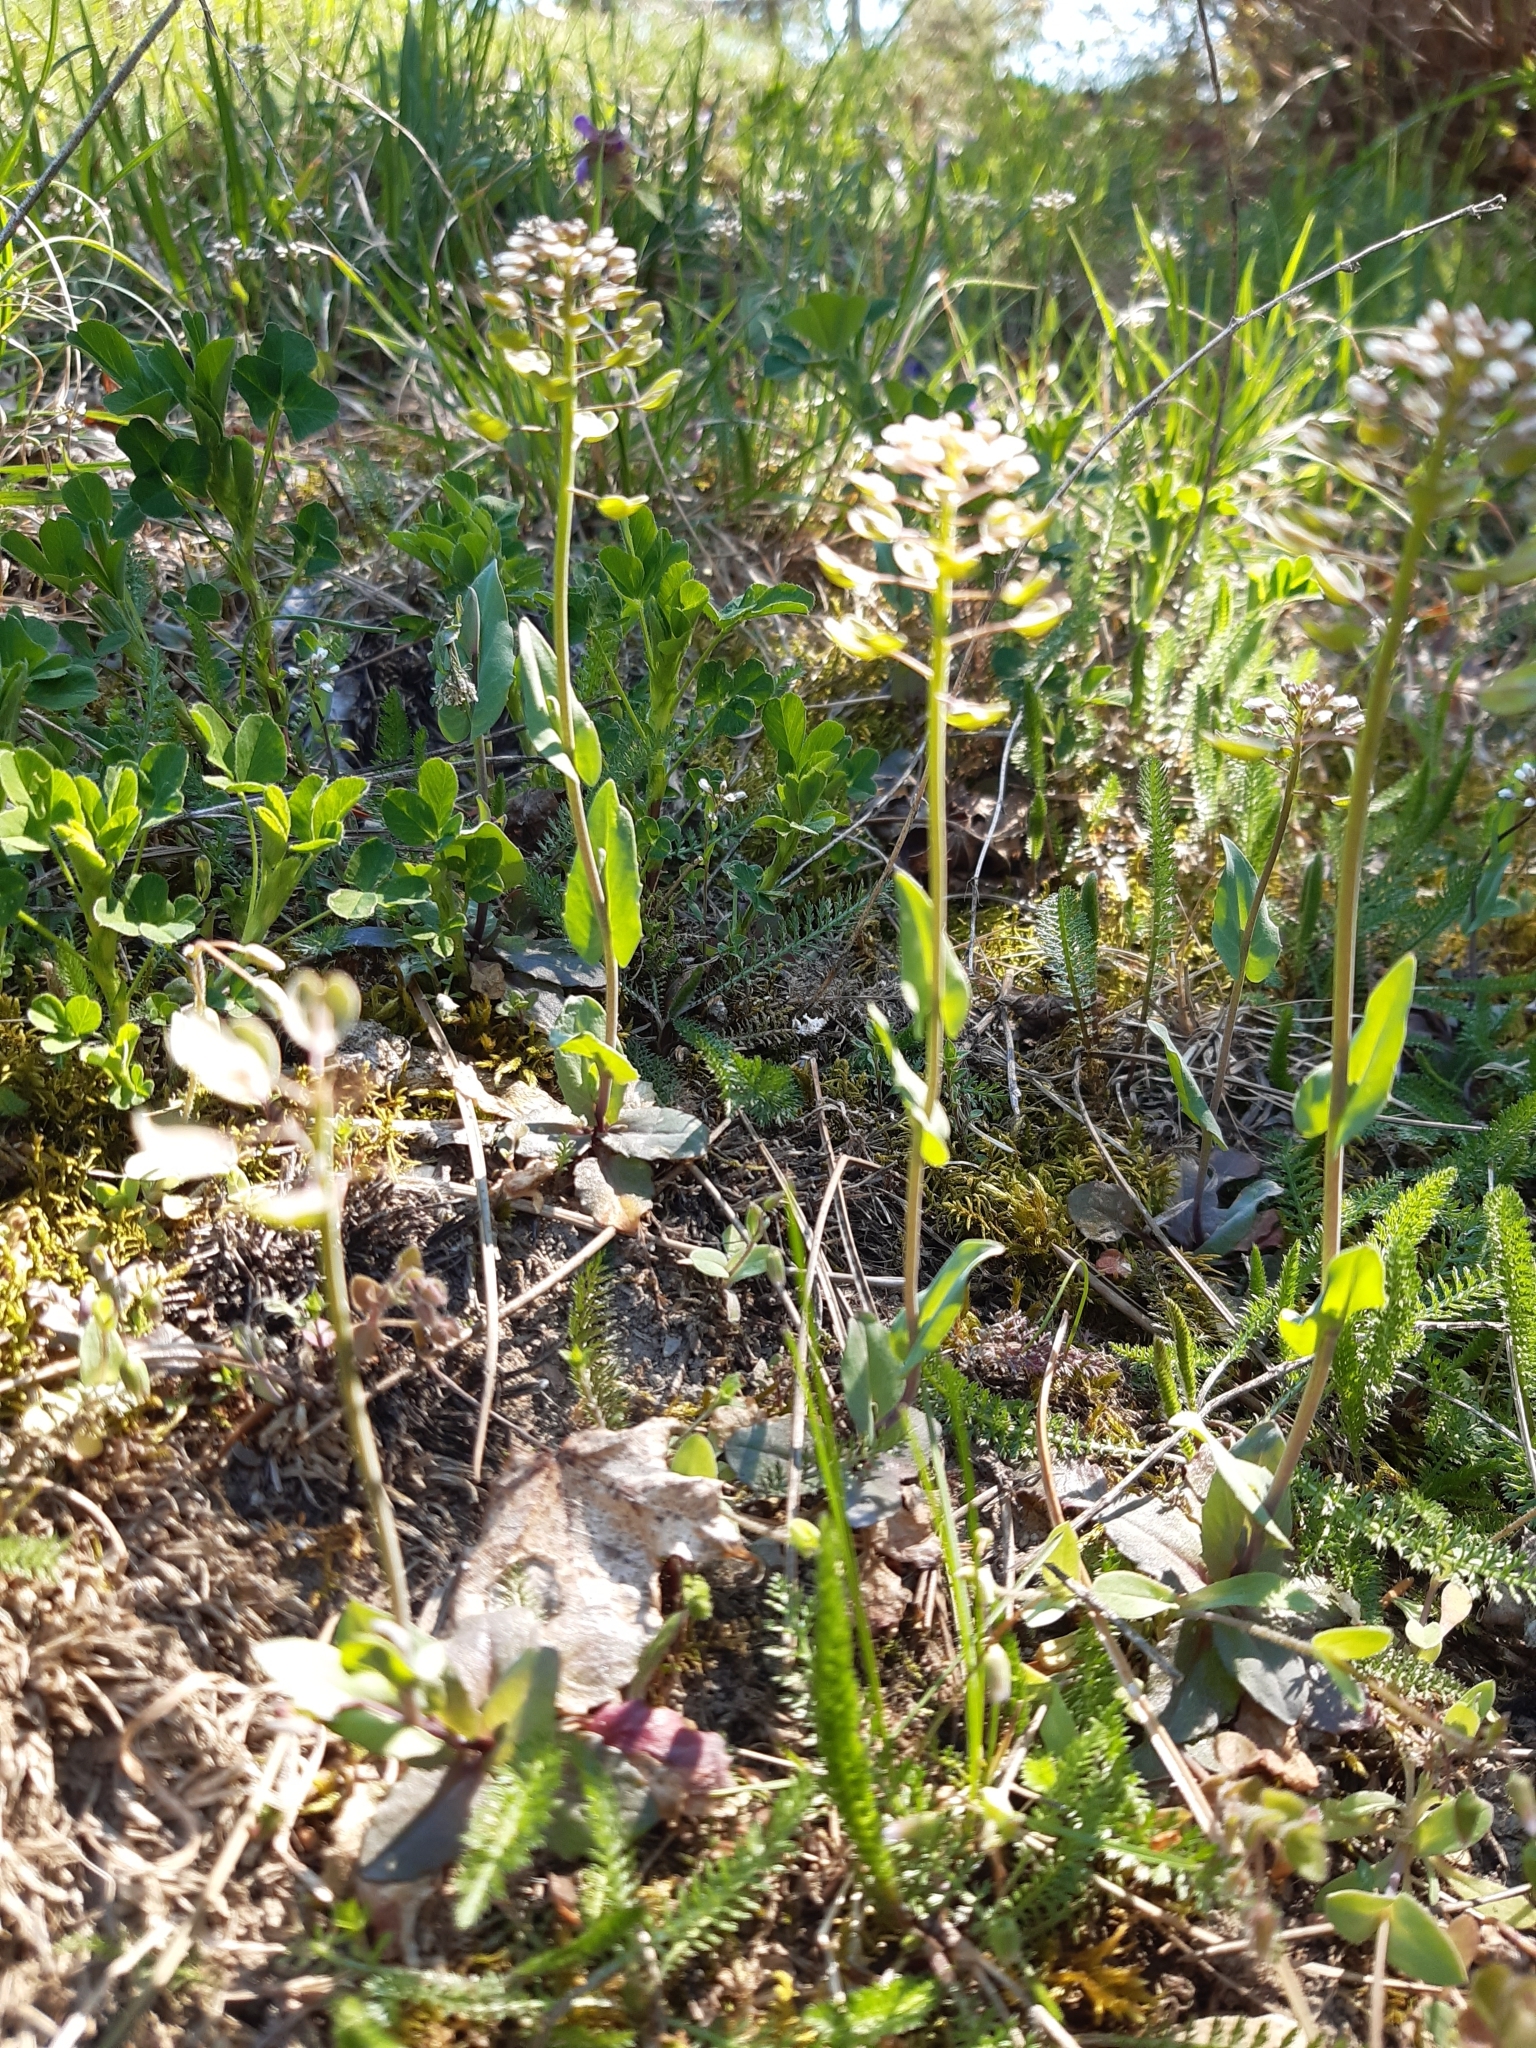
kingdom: Plantae
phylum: Tracheophyta
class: Magnoliopsida
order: Brassicales
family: Brassicaceae
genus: Noccaea
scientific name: Noccaea perfoliata
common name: Perfoliate pennycress
